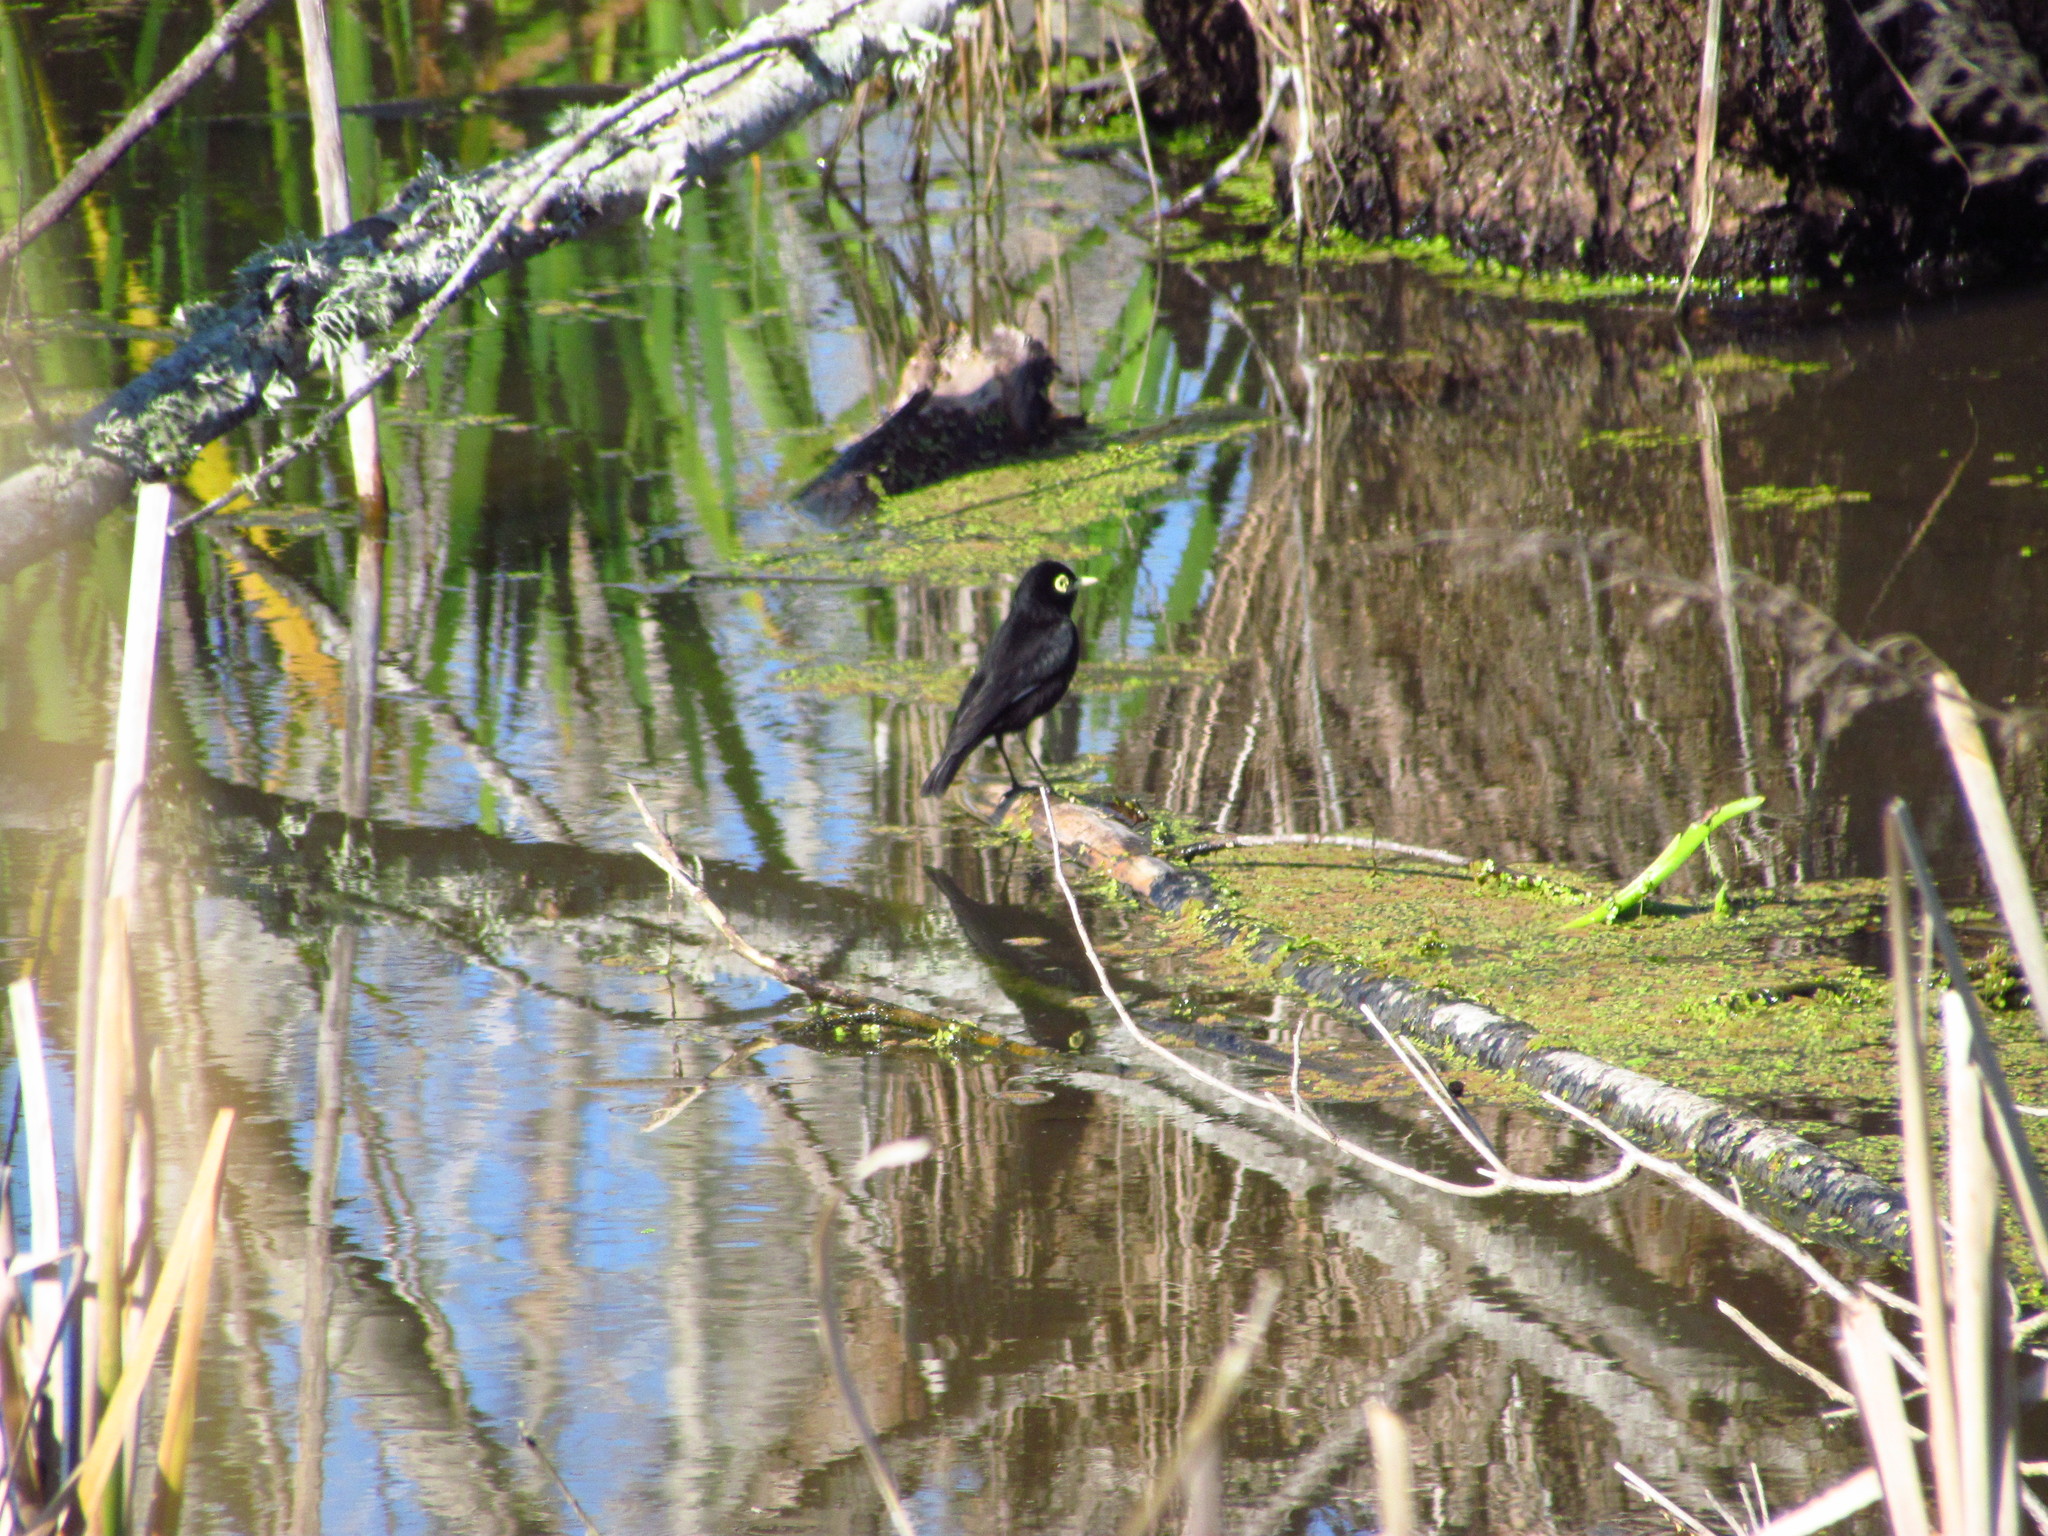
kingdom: Animalia
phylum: Chordata
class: Aves
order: Passeriformes
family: Tyrannidae
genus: Hymenops
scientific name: Hymenops perspicillatus
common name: Spectacled tyrant
